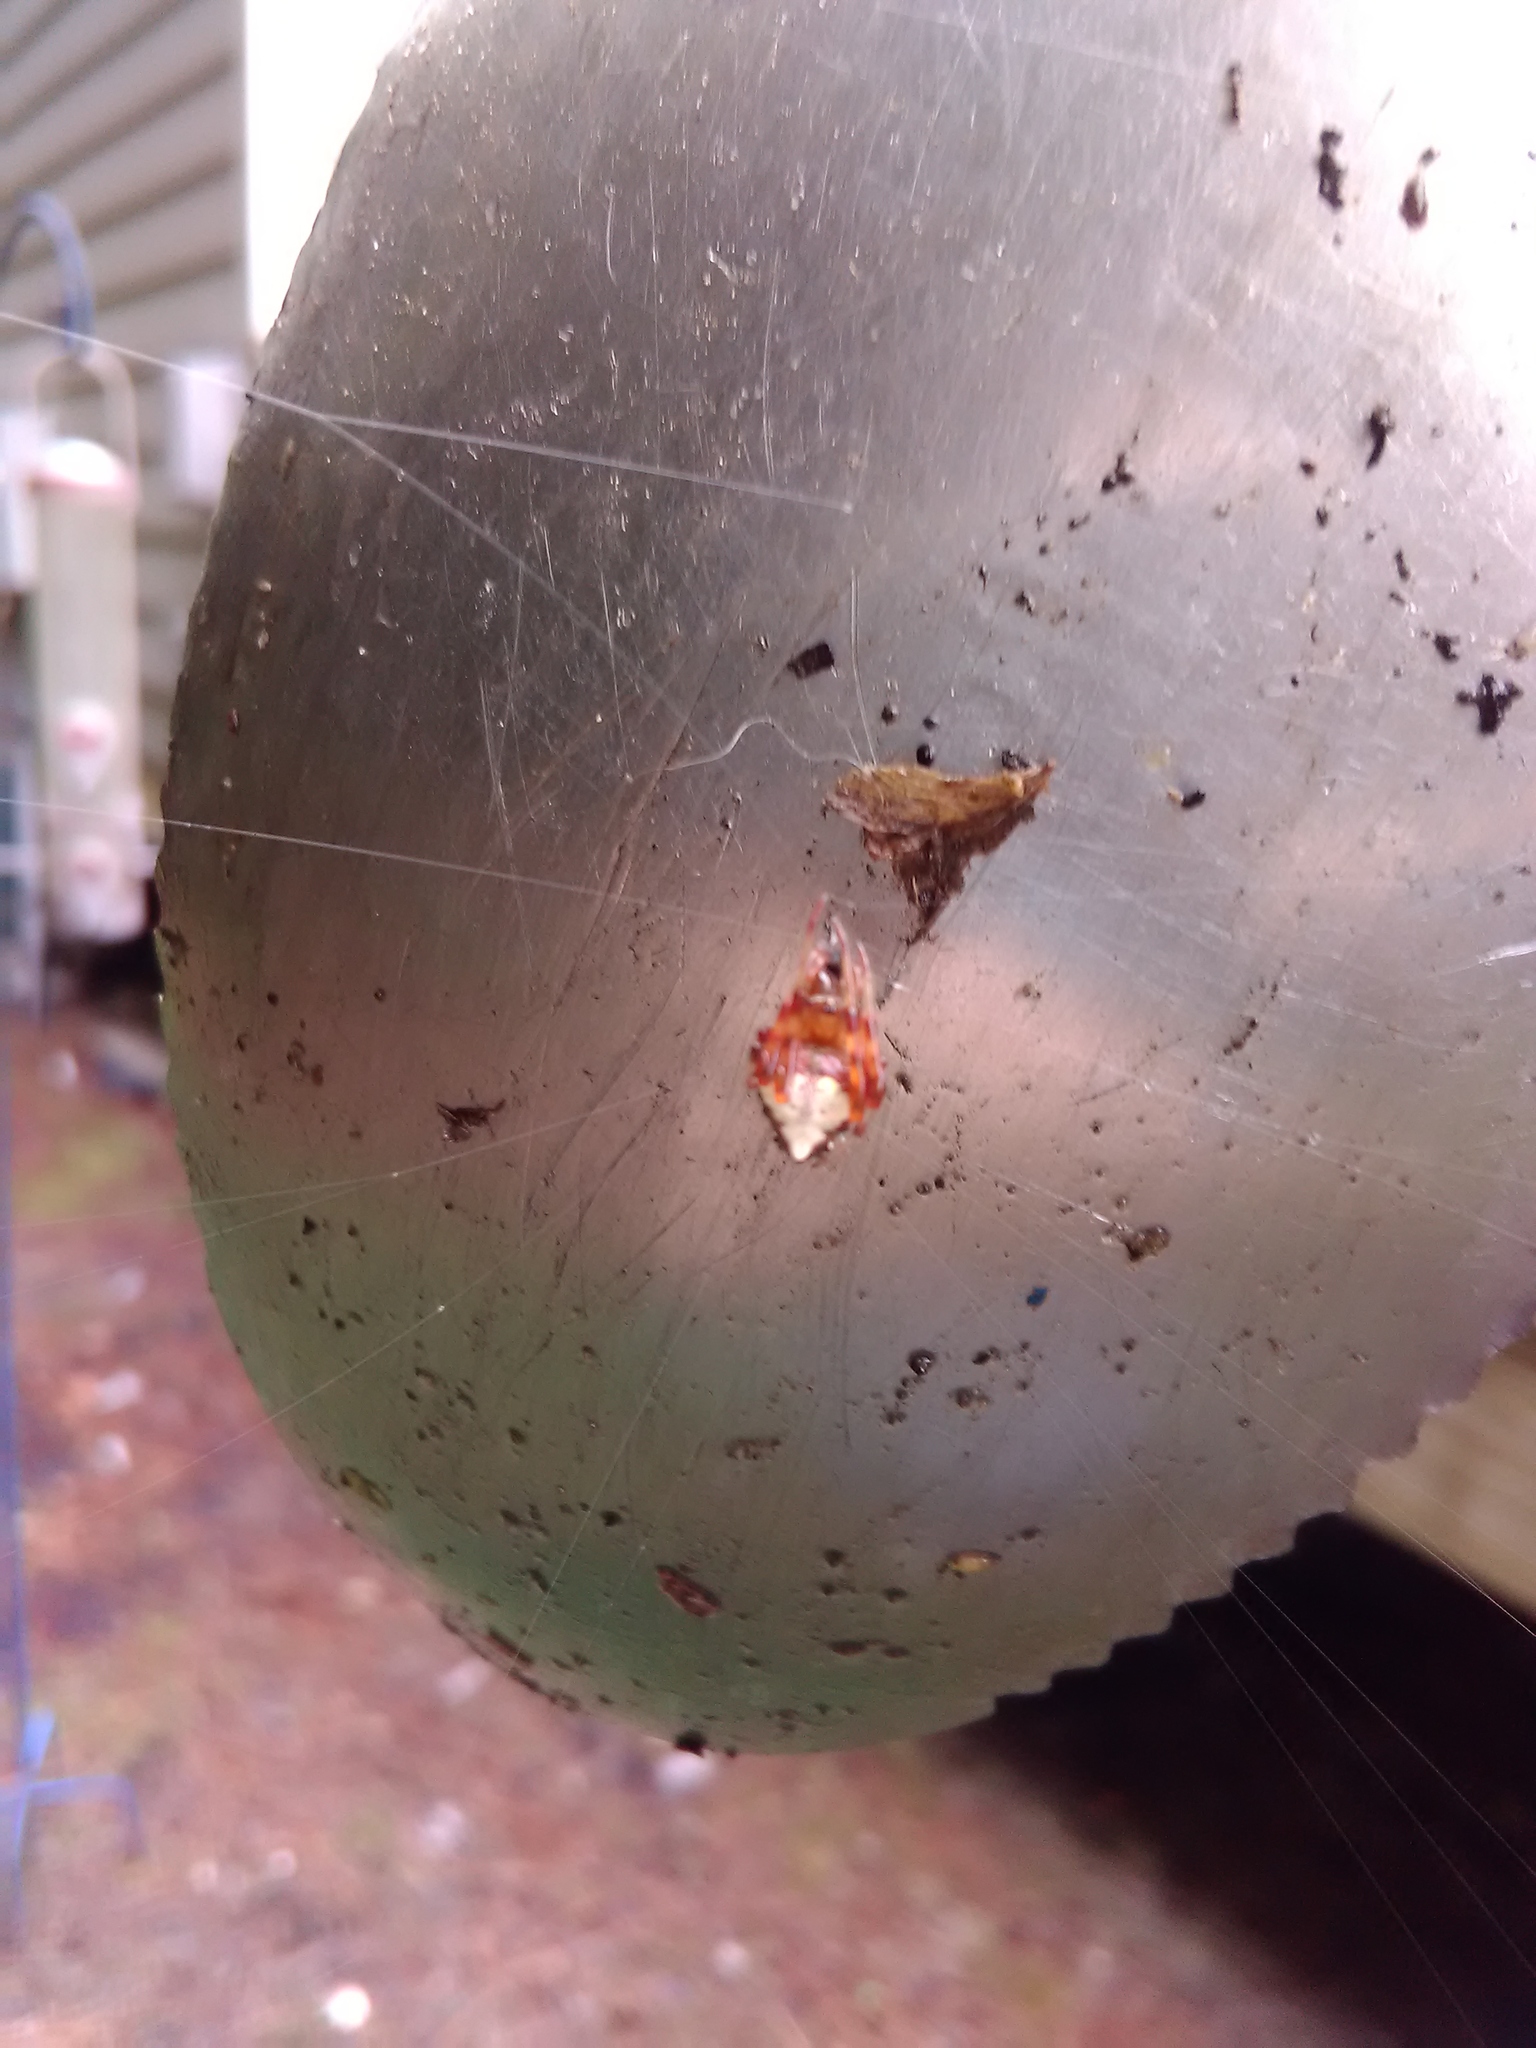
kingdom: Animalia
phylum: Arthropoda
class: Arachnida
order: Araneae
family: Araneidae
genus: Verrucosa
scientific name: Verrucosa arenata
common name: Orb weavers
